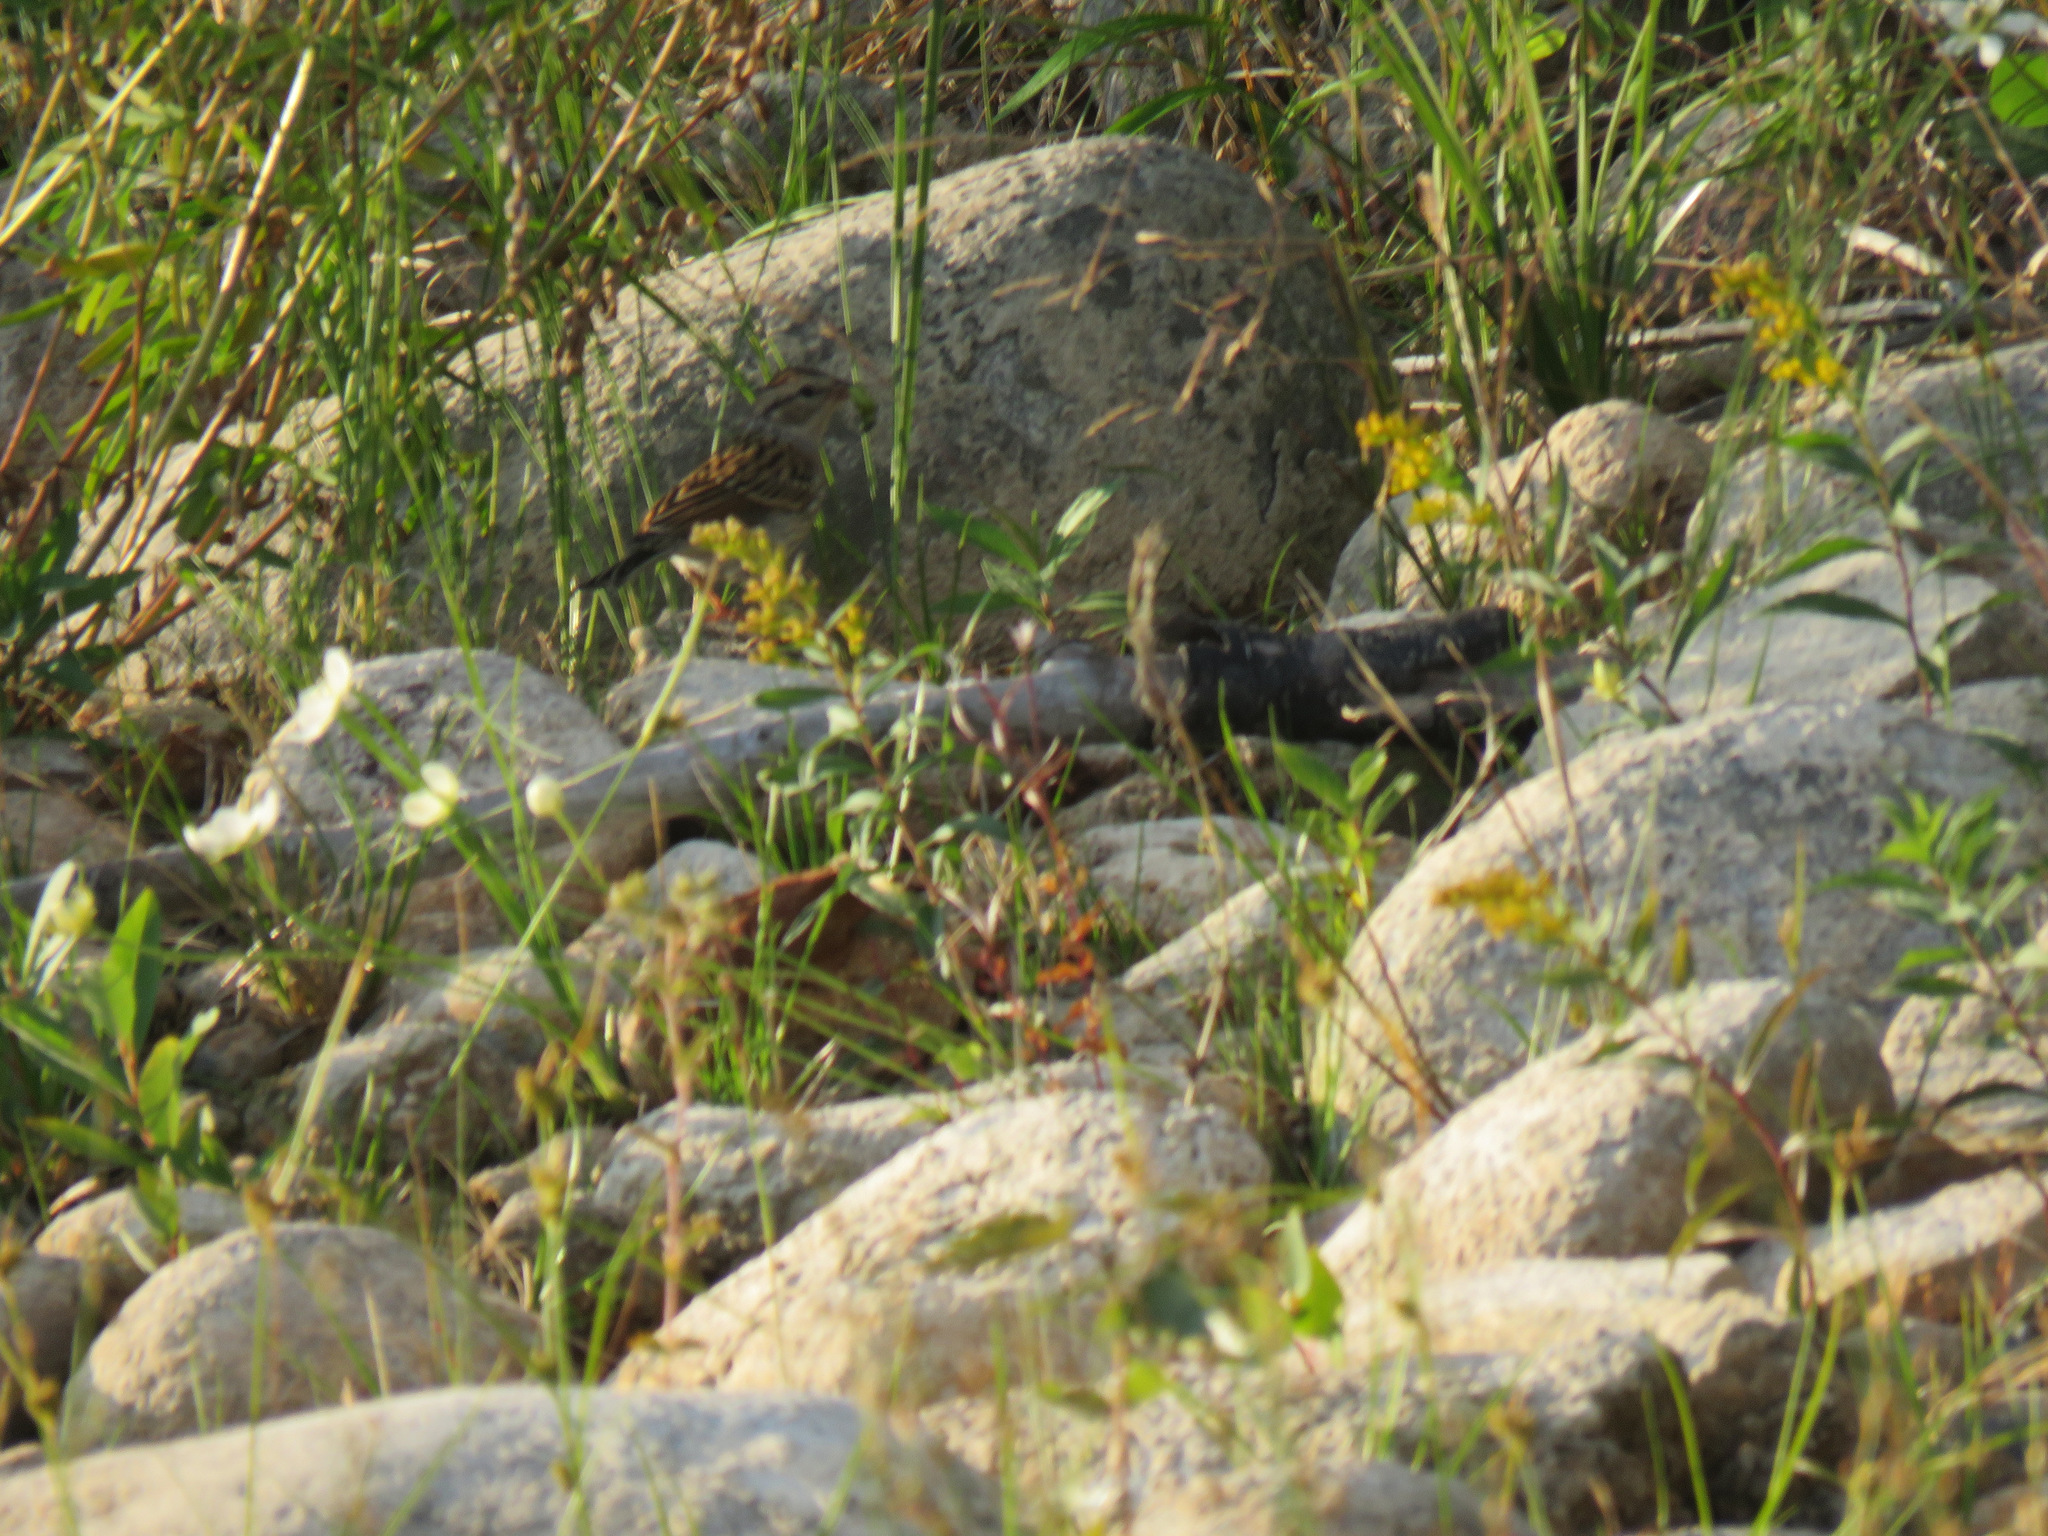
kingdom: Animalia
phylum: Chordata
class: Aves
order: Passeriformes
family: Passerellidae
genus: Spizella
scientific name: Spizella passerina
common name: Chipping sparrow
